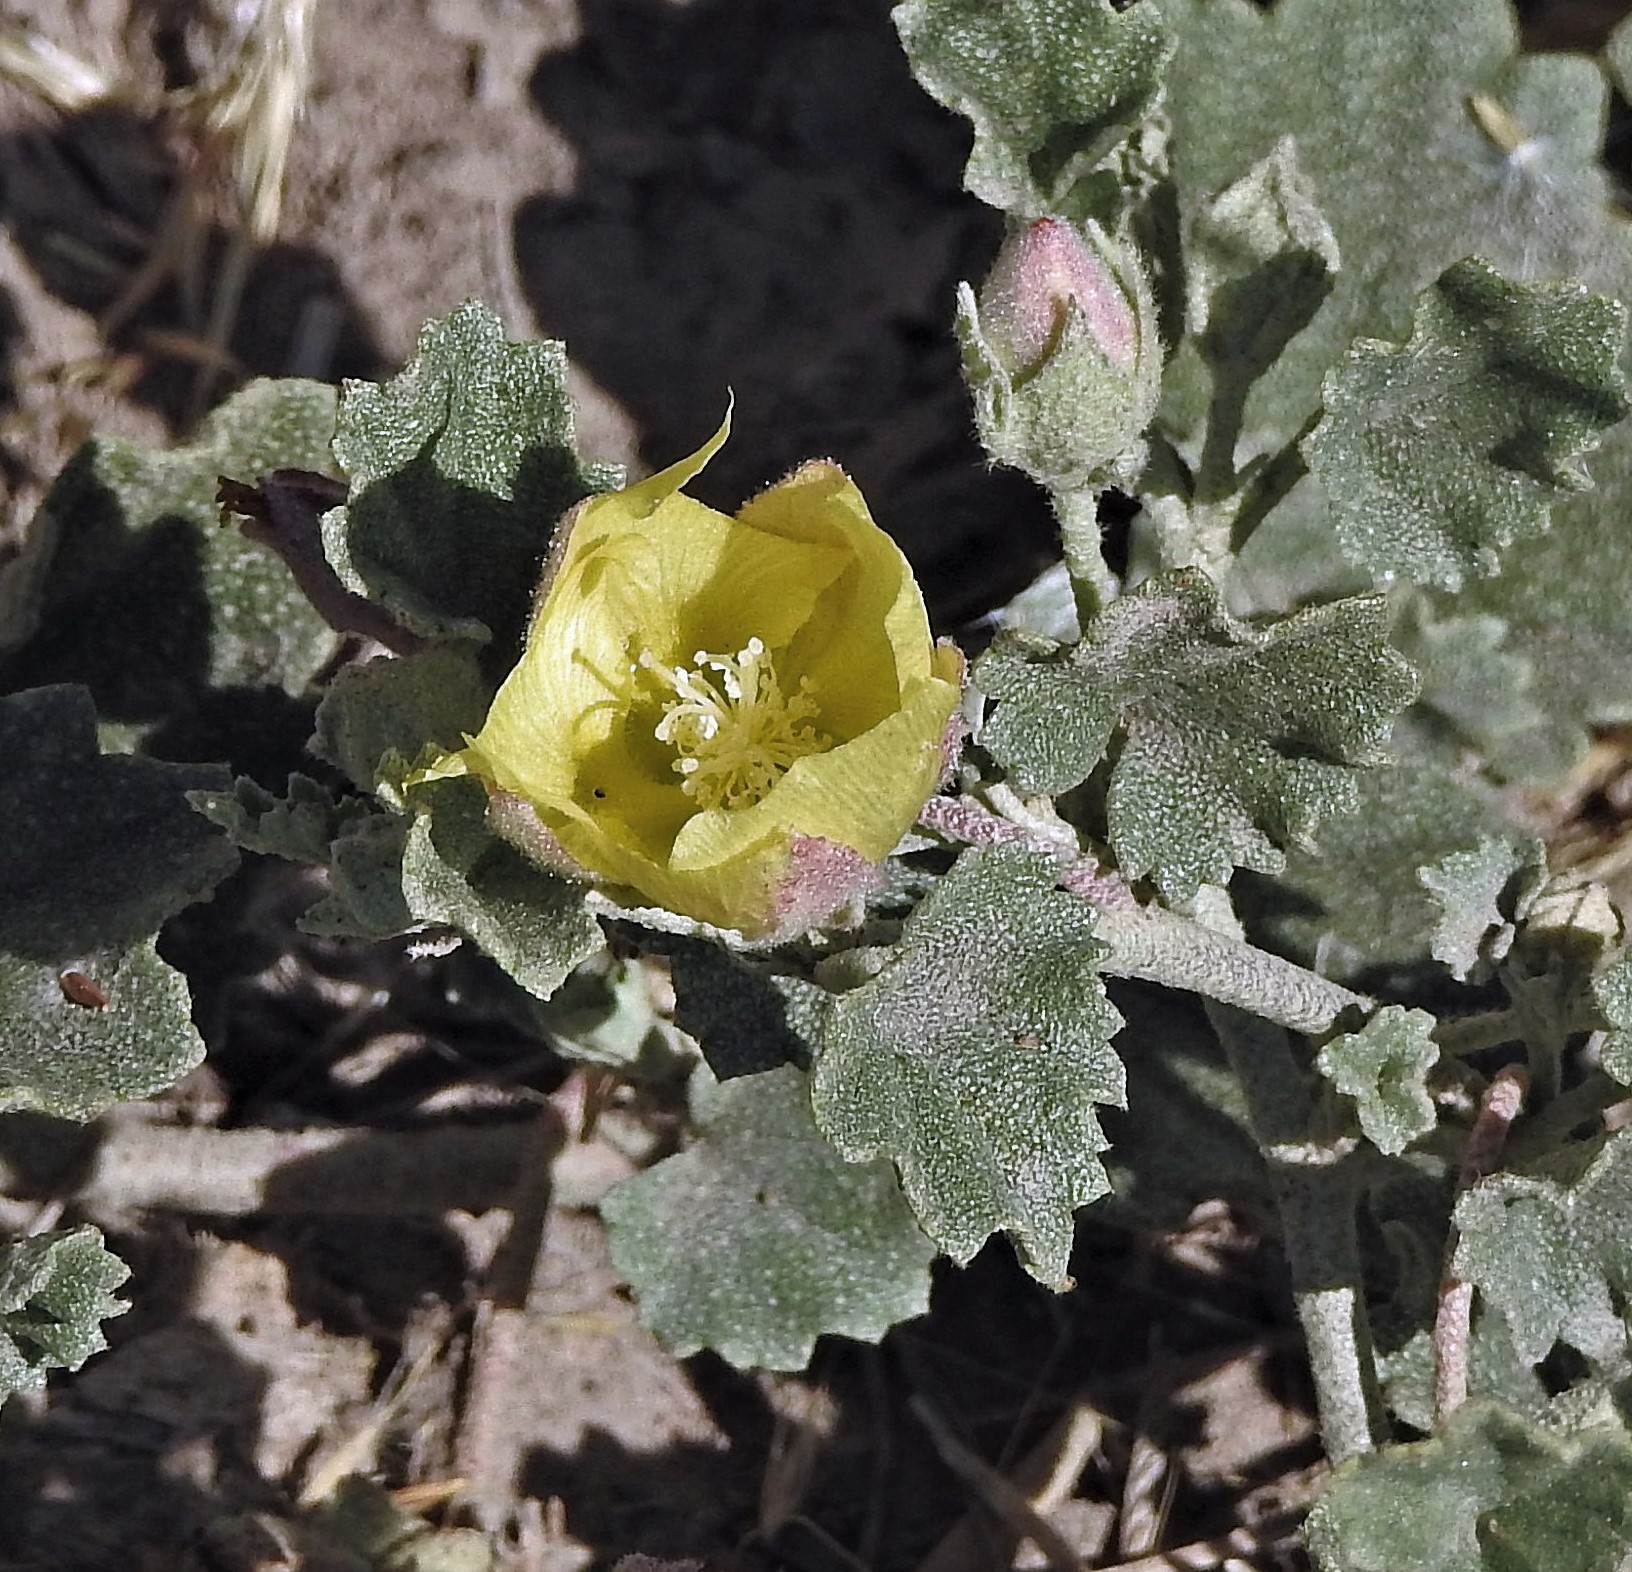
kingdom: Plantae
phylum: Tracheophyta
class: Magnoliopsida
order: Malvales
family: Malvaceae
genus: Malvella
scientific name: Malvella leprosa
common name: Alkali-mallow
